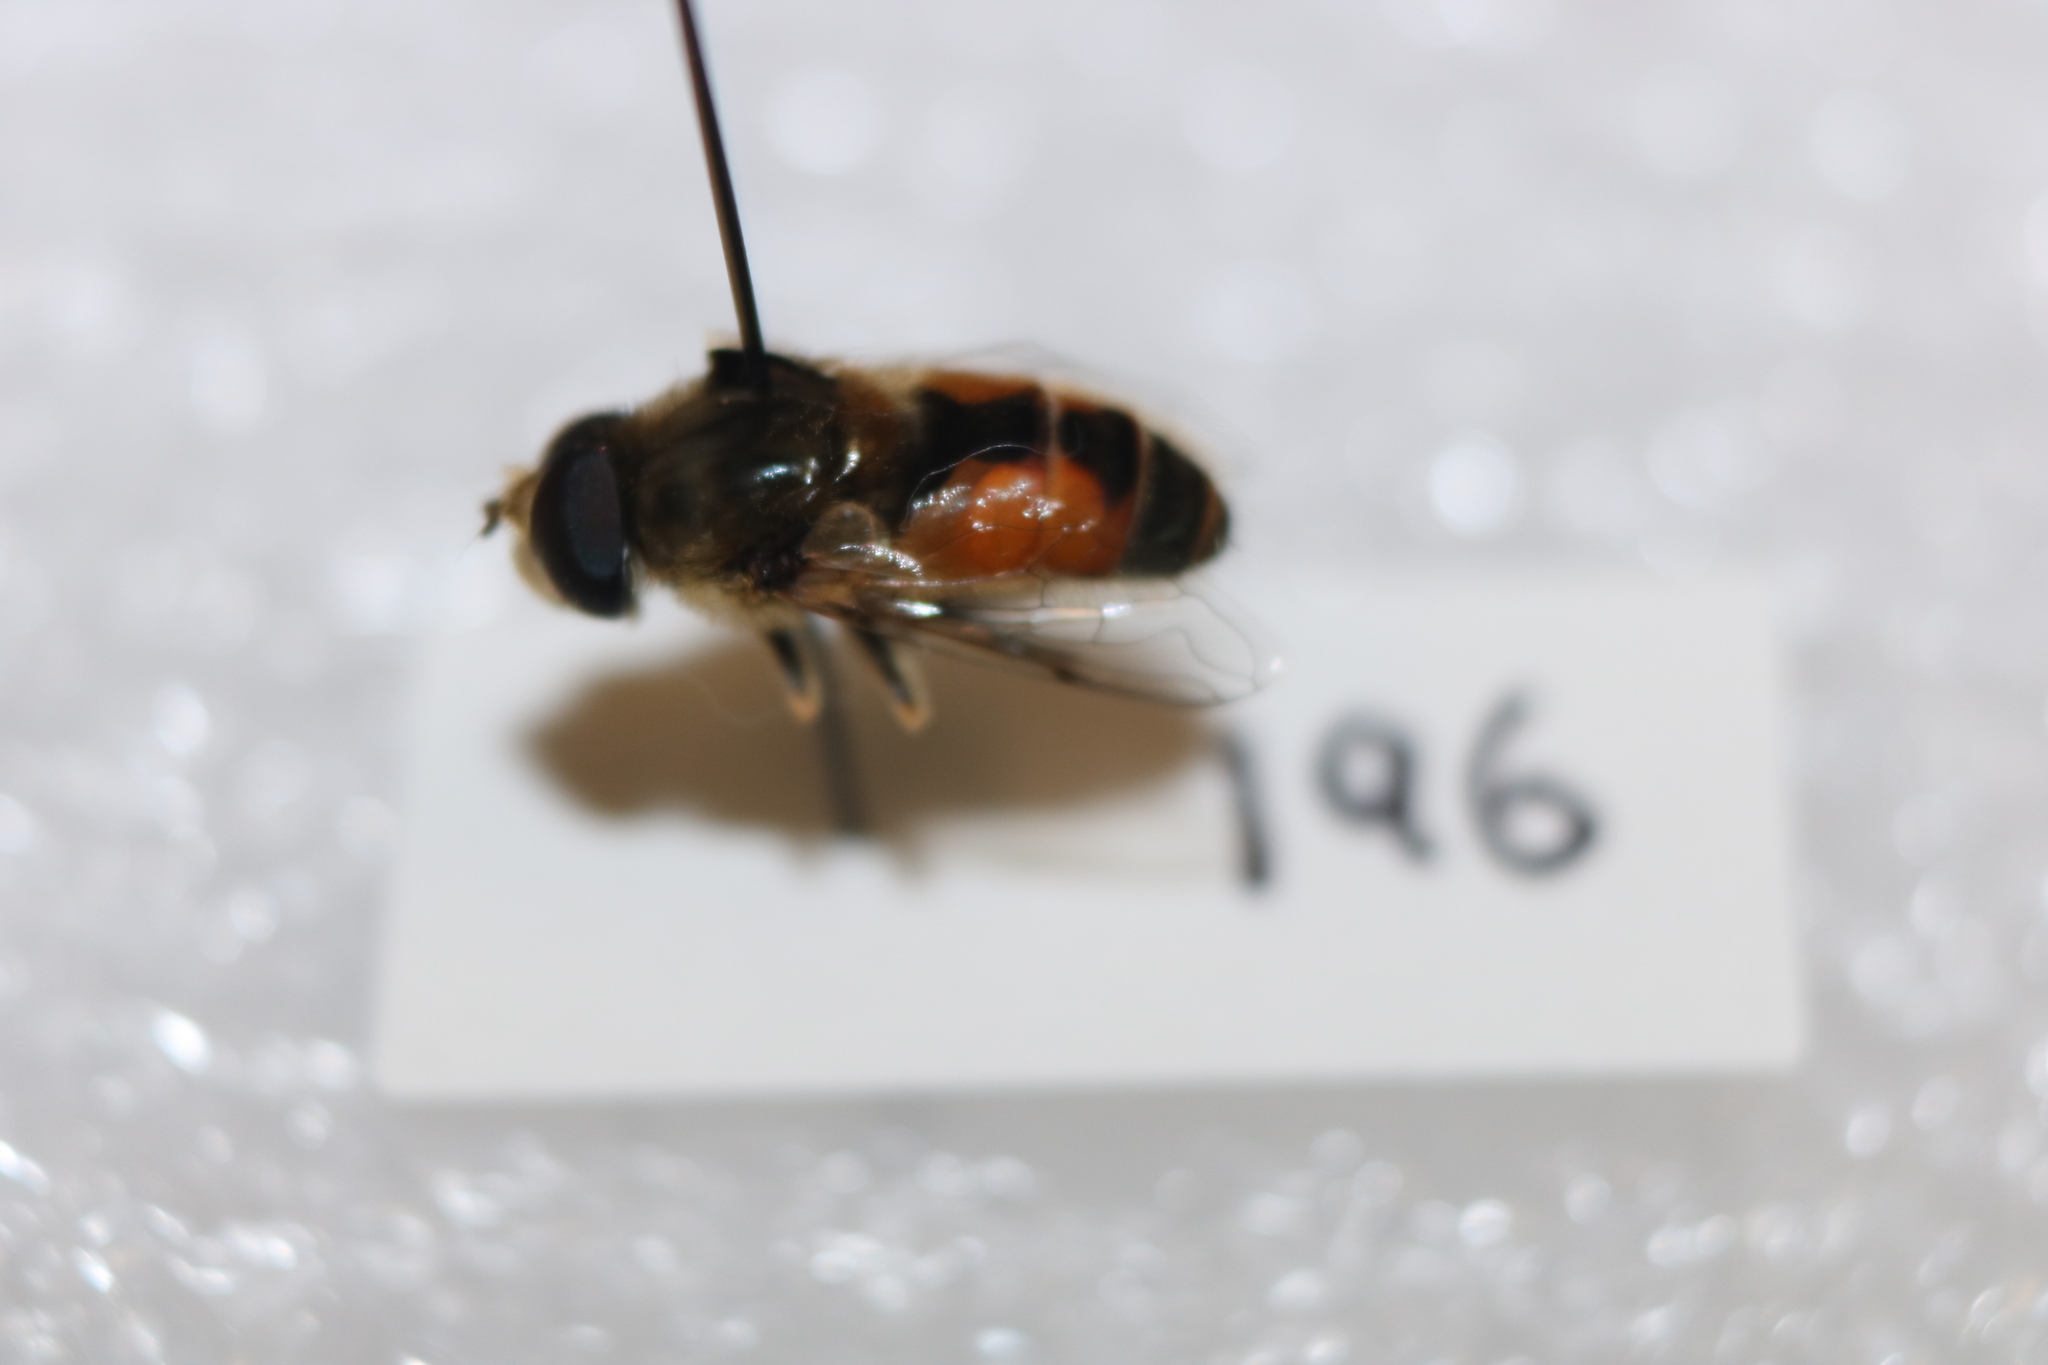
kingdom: Animalia
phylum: Arthropoda
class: Insecta
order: Diptera
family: Syrphidae
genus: Eristalis
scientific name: Eristalis arbustorum
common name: Hover fly
